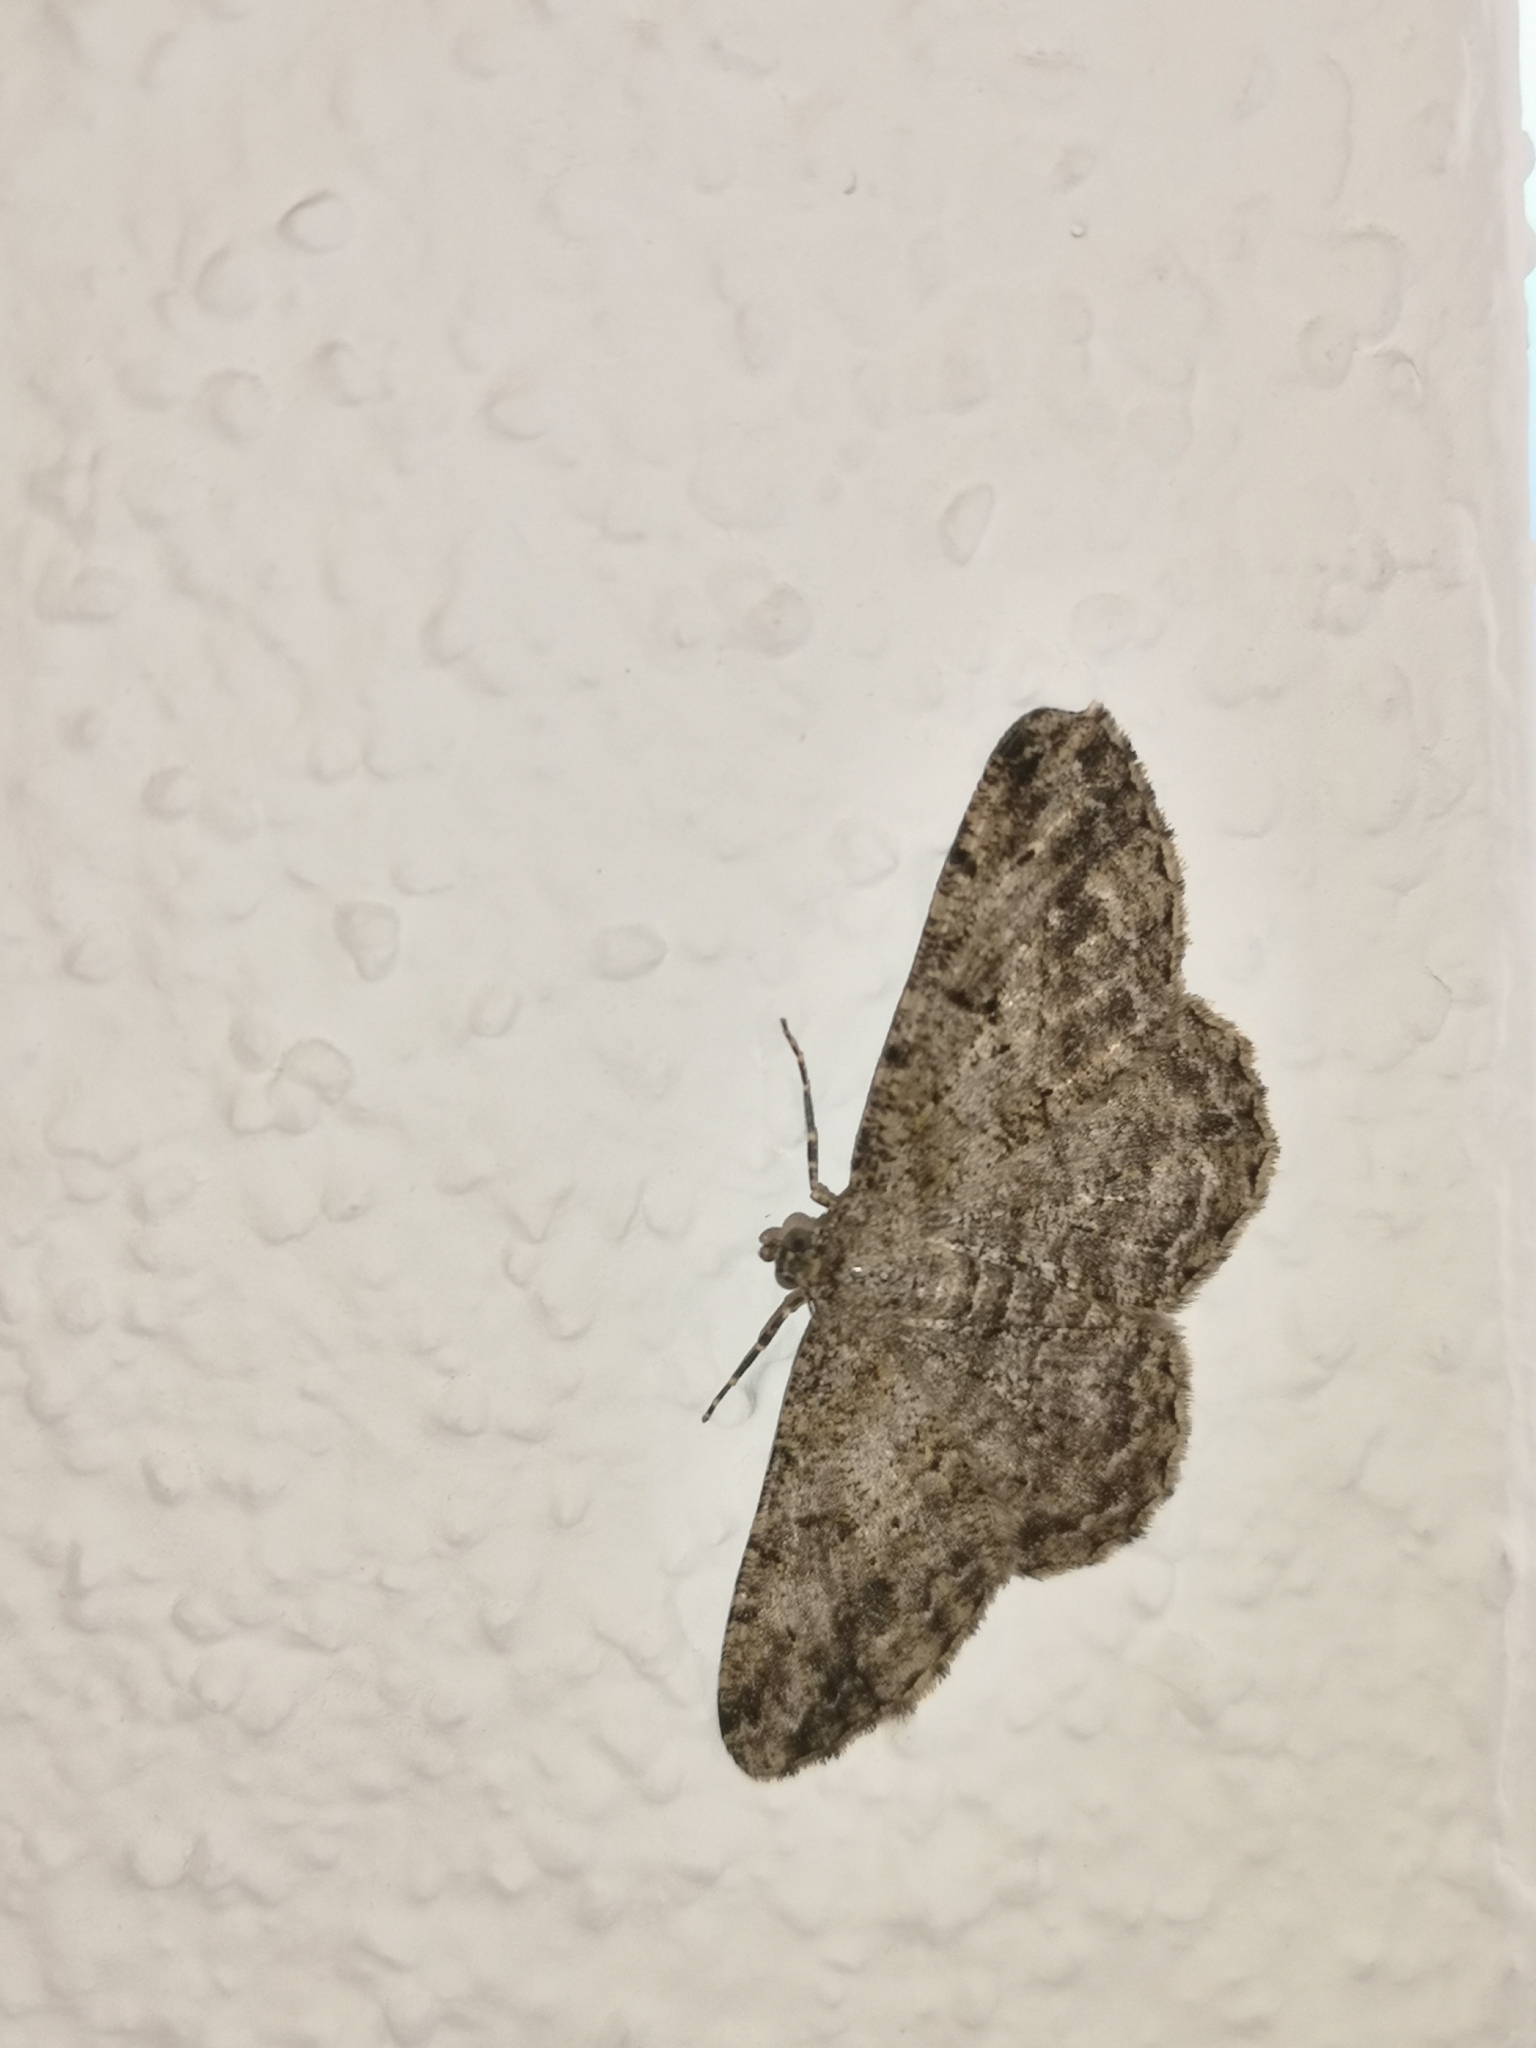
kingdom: Animalia
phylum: Arthropoda
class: Insecta
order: Lepidoptera
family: Geometridae
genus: Peribatodes
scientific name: Peribatodes rhomboidaria
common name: Willow beauty
